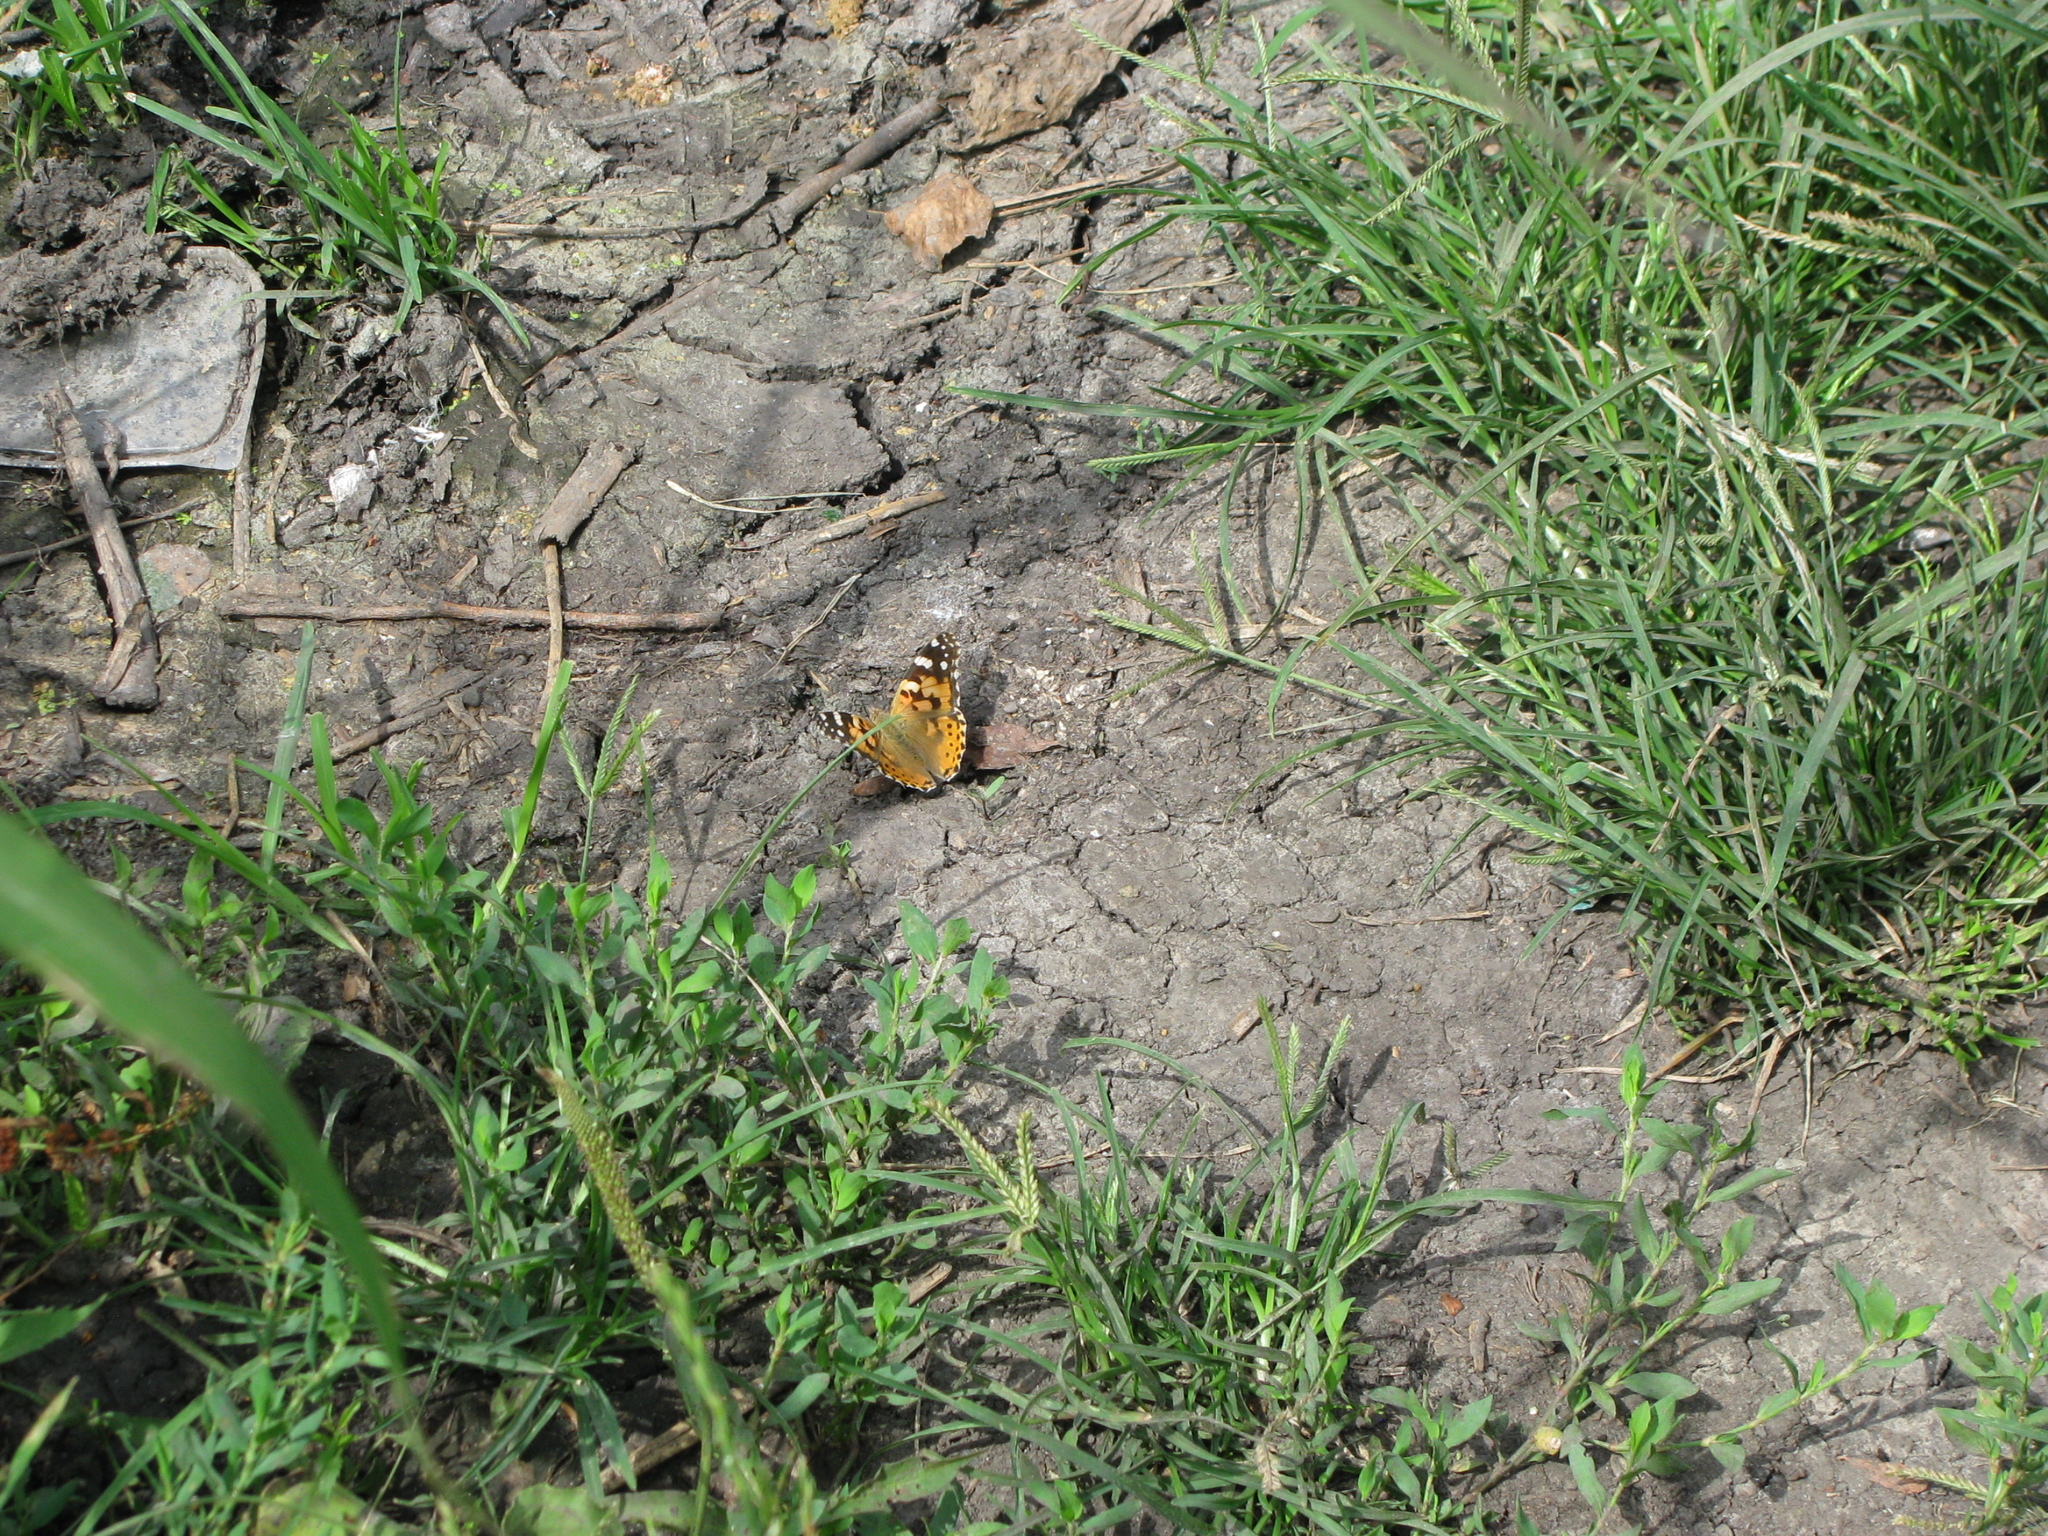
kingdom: Animalia
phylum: Arthropoda
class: Insecta
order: Lepidoptera
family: Nymphalidae
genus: Vanessa
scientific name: Vanessa cardui
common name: Painted lady
